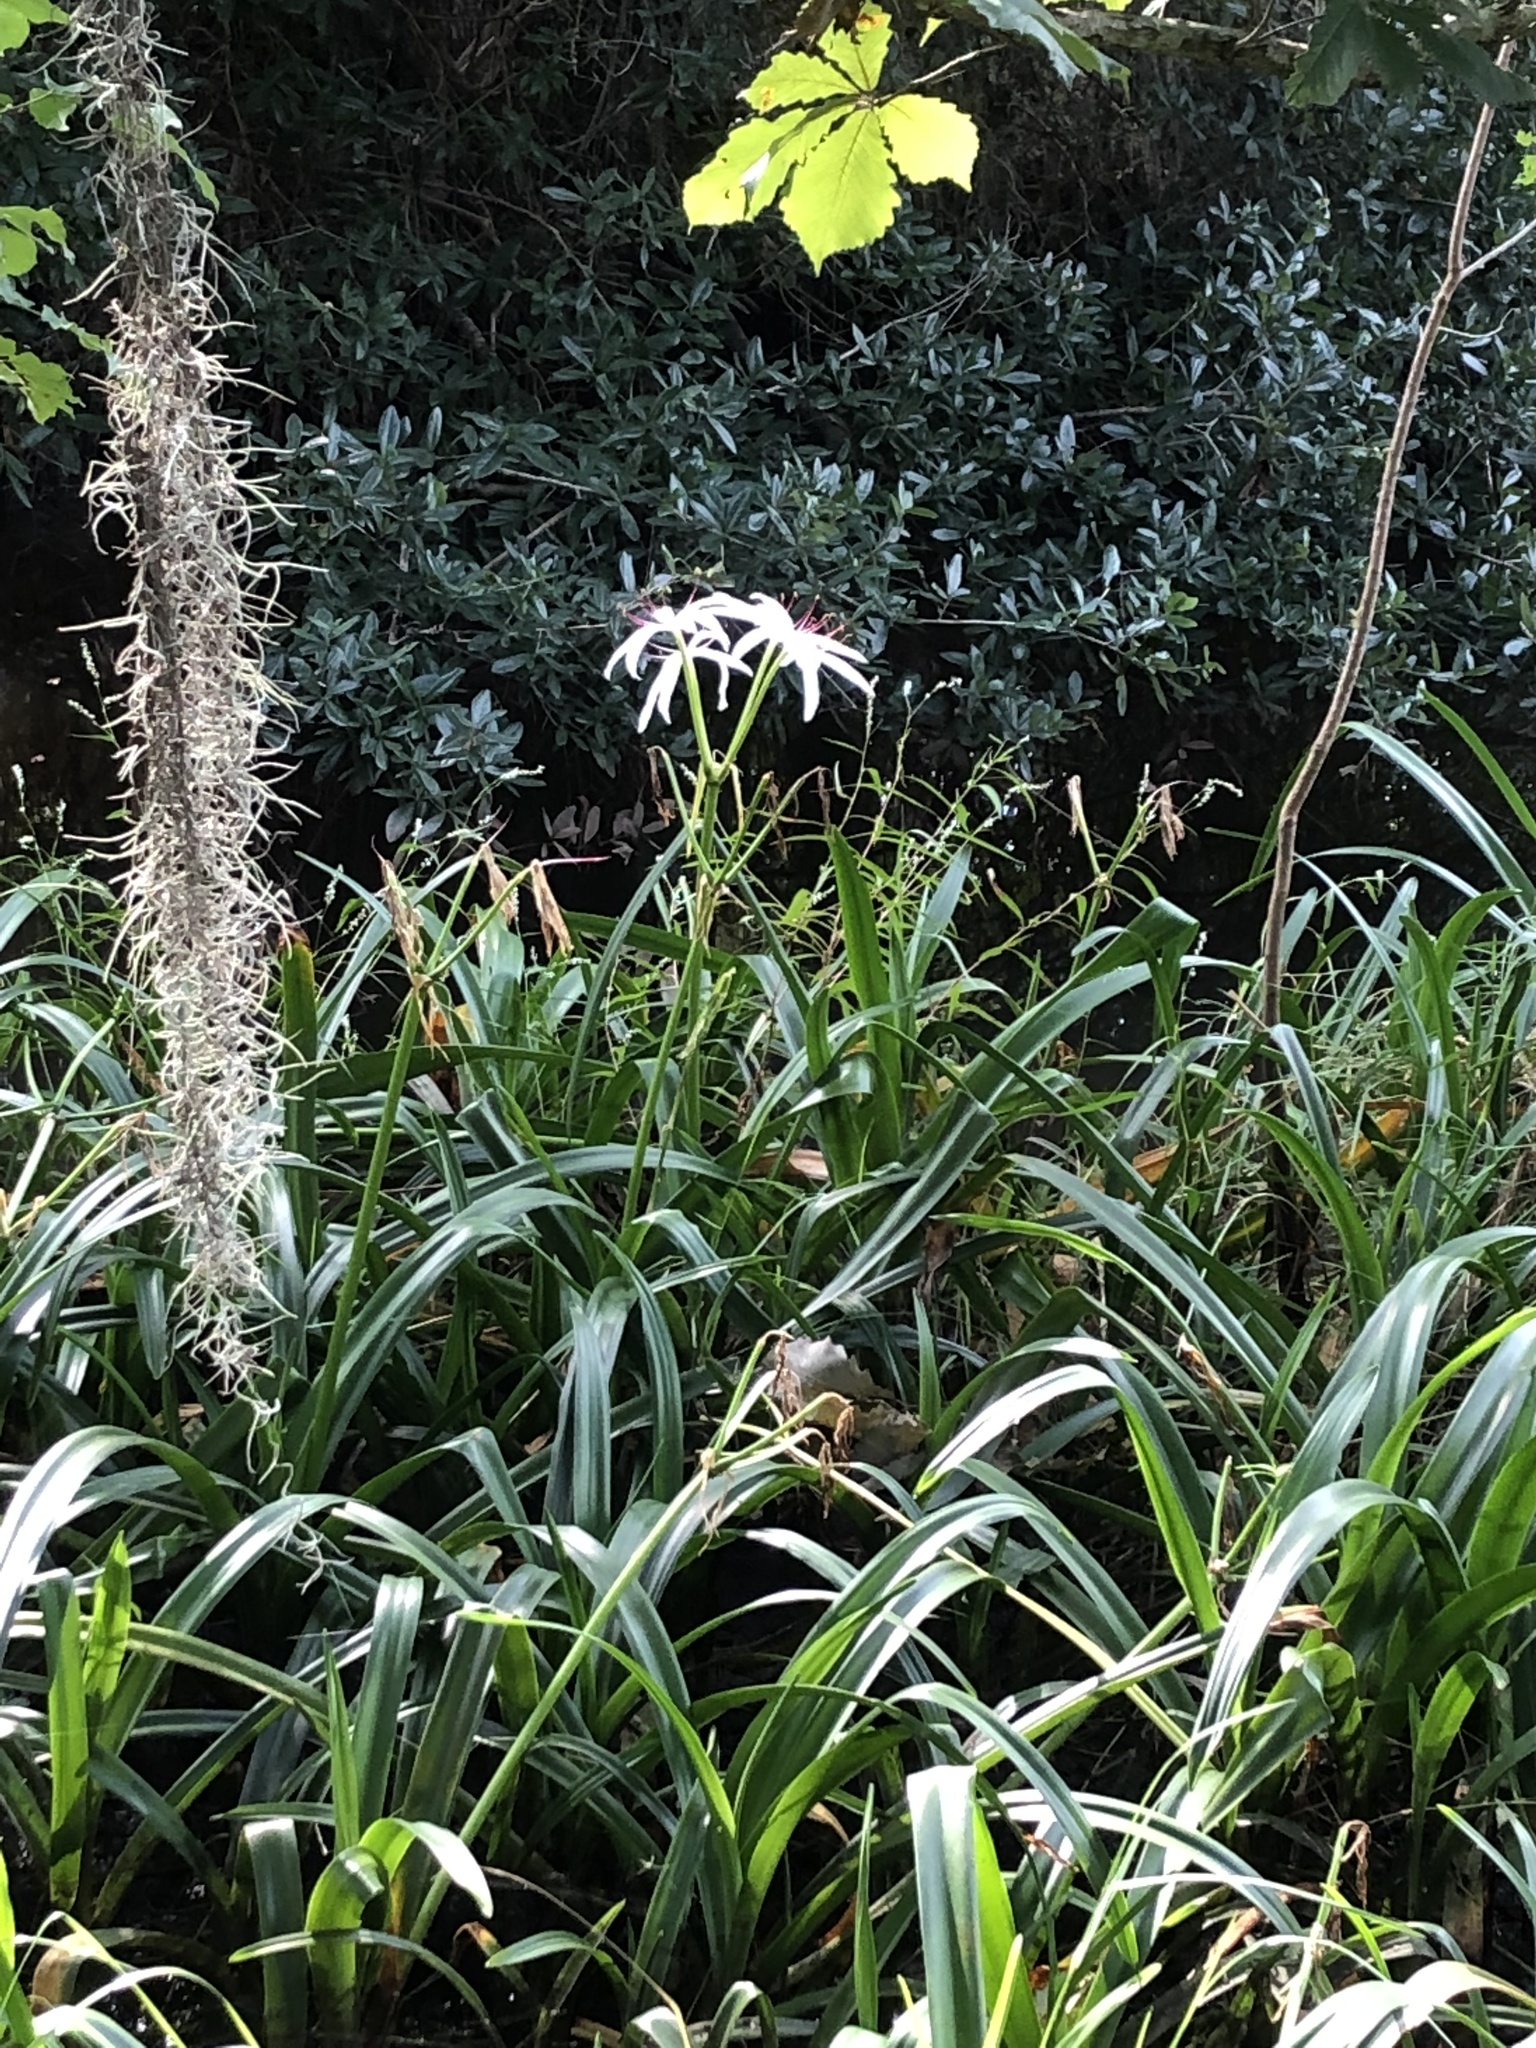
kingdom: Plantae
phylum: Tracheophyta
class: Liliopsida
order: Asparagales
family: Amaryllidaceae
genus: Crinum
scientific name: Crinum americanum
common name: Florida swamp-lily
